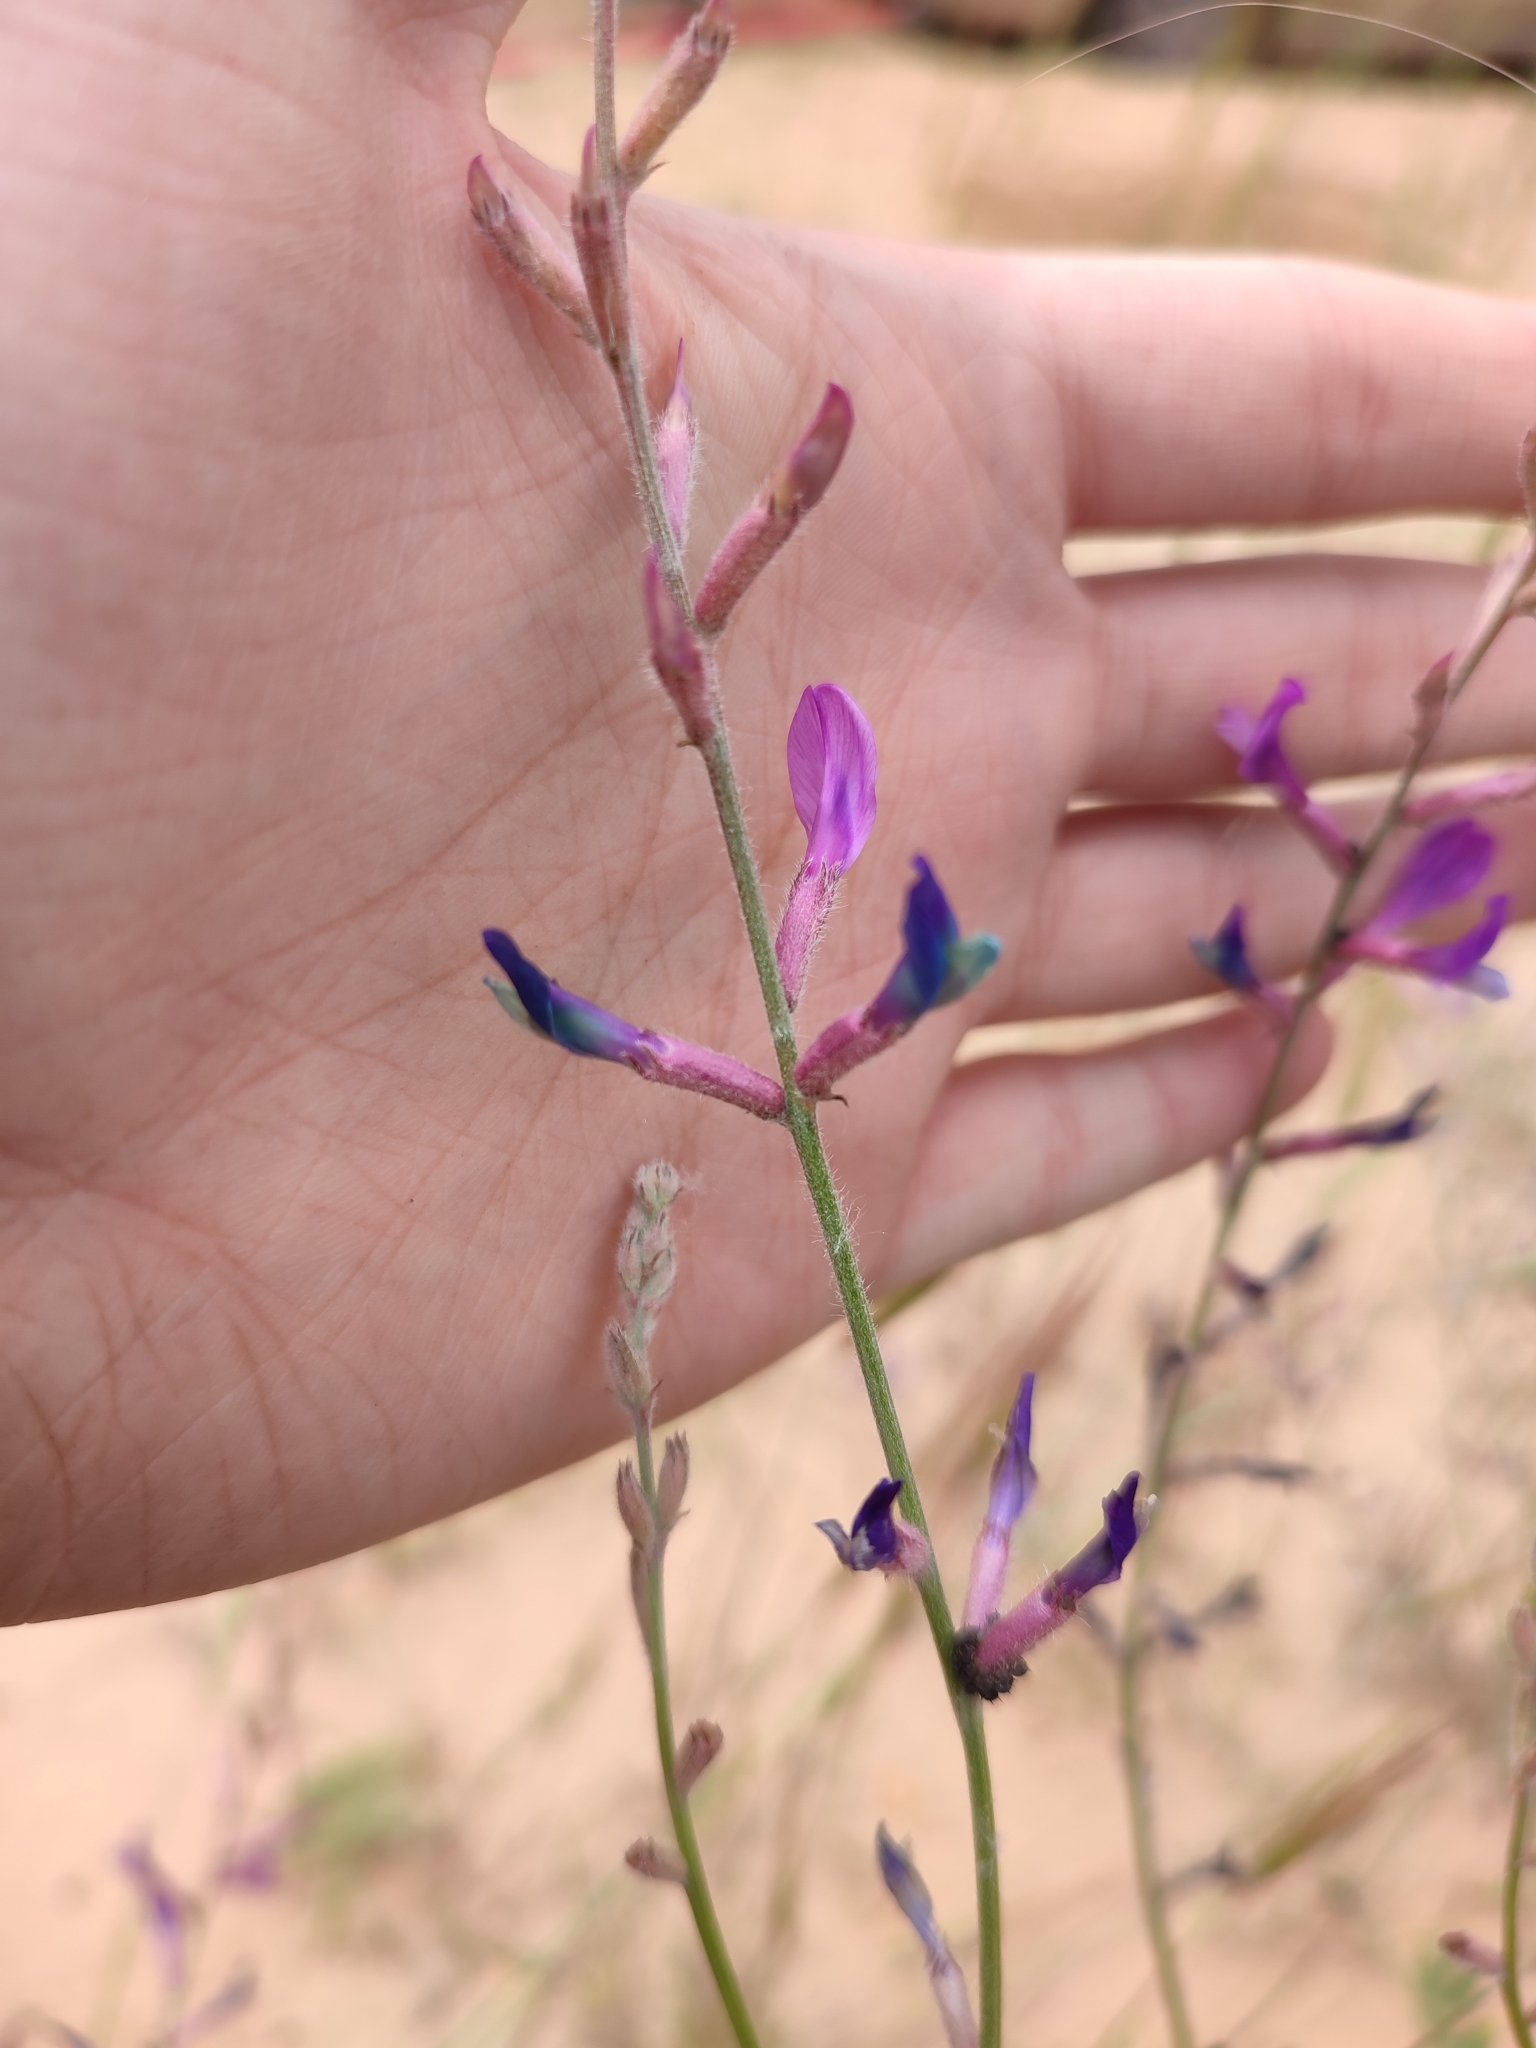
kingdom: Plantae
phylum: Tracheophyta
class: Magnoliopsida
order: Fabales
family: Fabaceae
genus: Astragalus
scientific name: Astragalus varius
